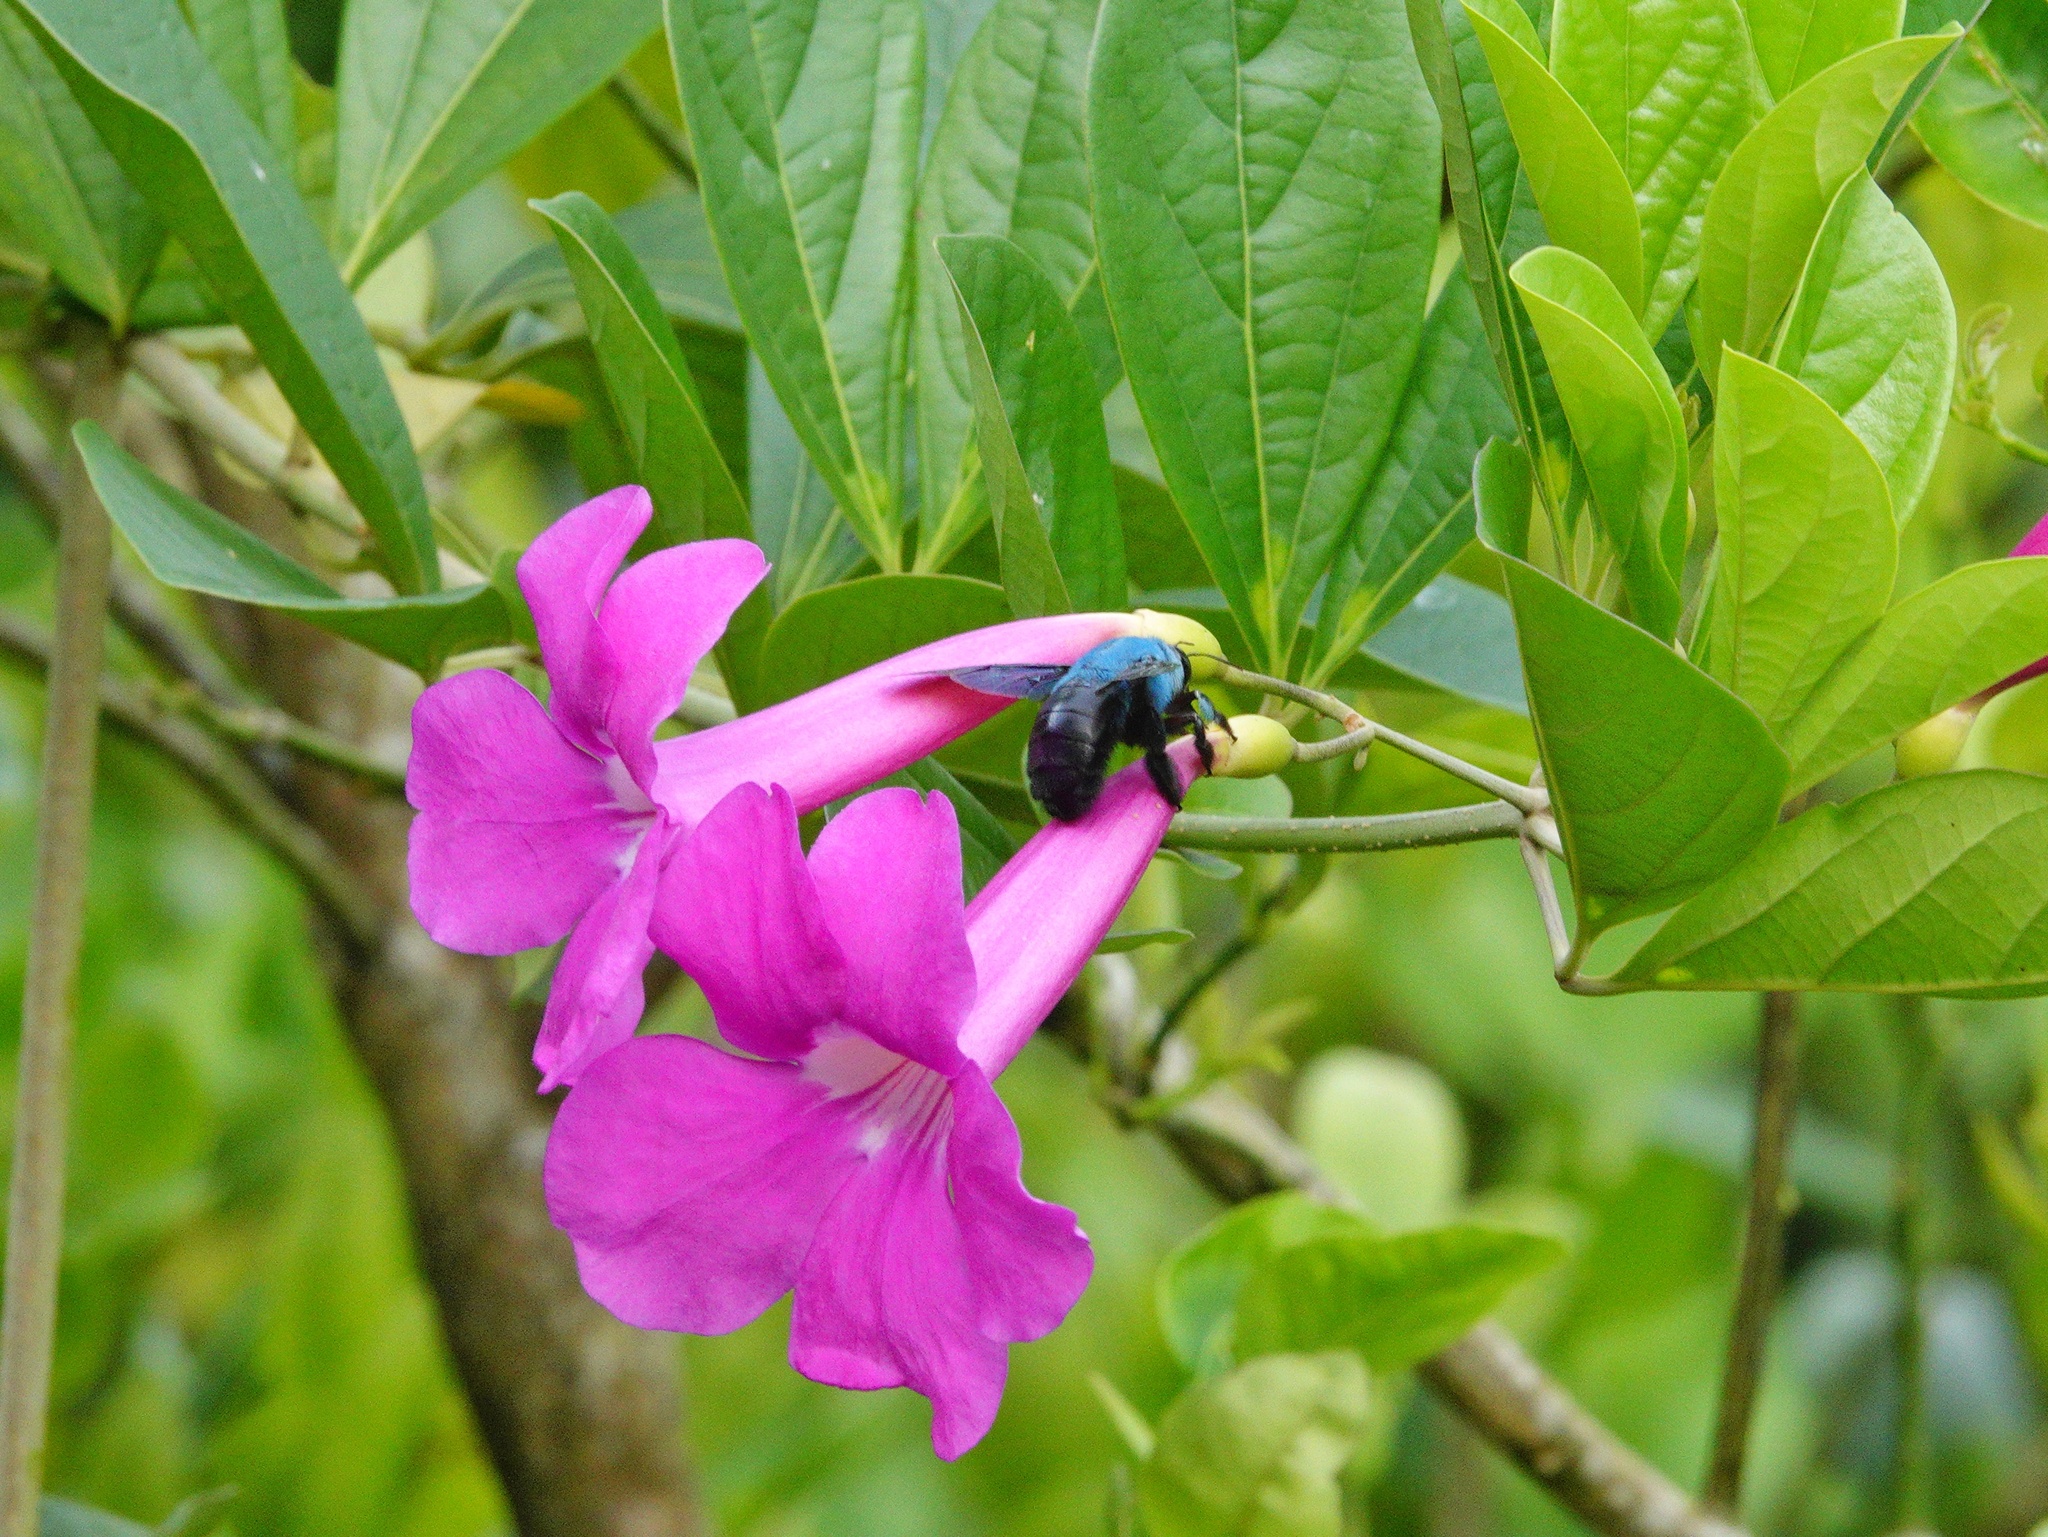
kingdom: Animalia
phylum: Arthropoda
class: Insecta
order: Hymenoptera
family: Apidae
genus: Xylocopa
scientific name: Xylocopa caerulea
